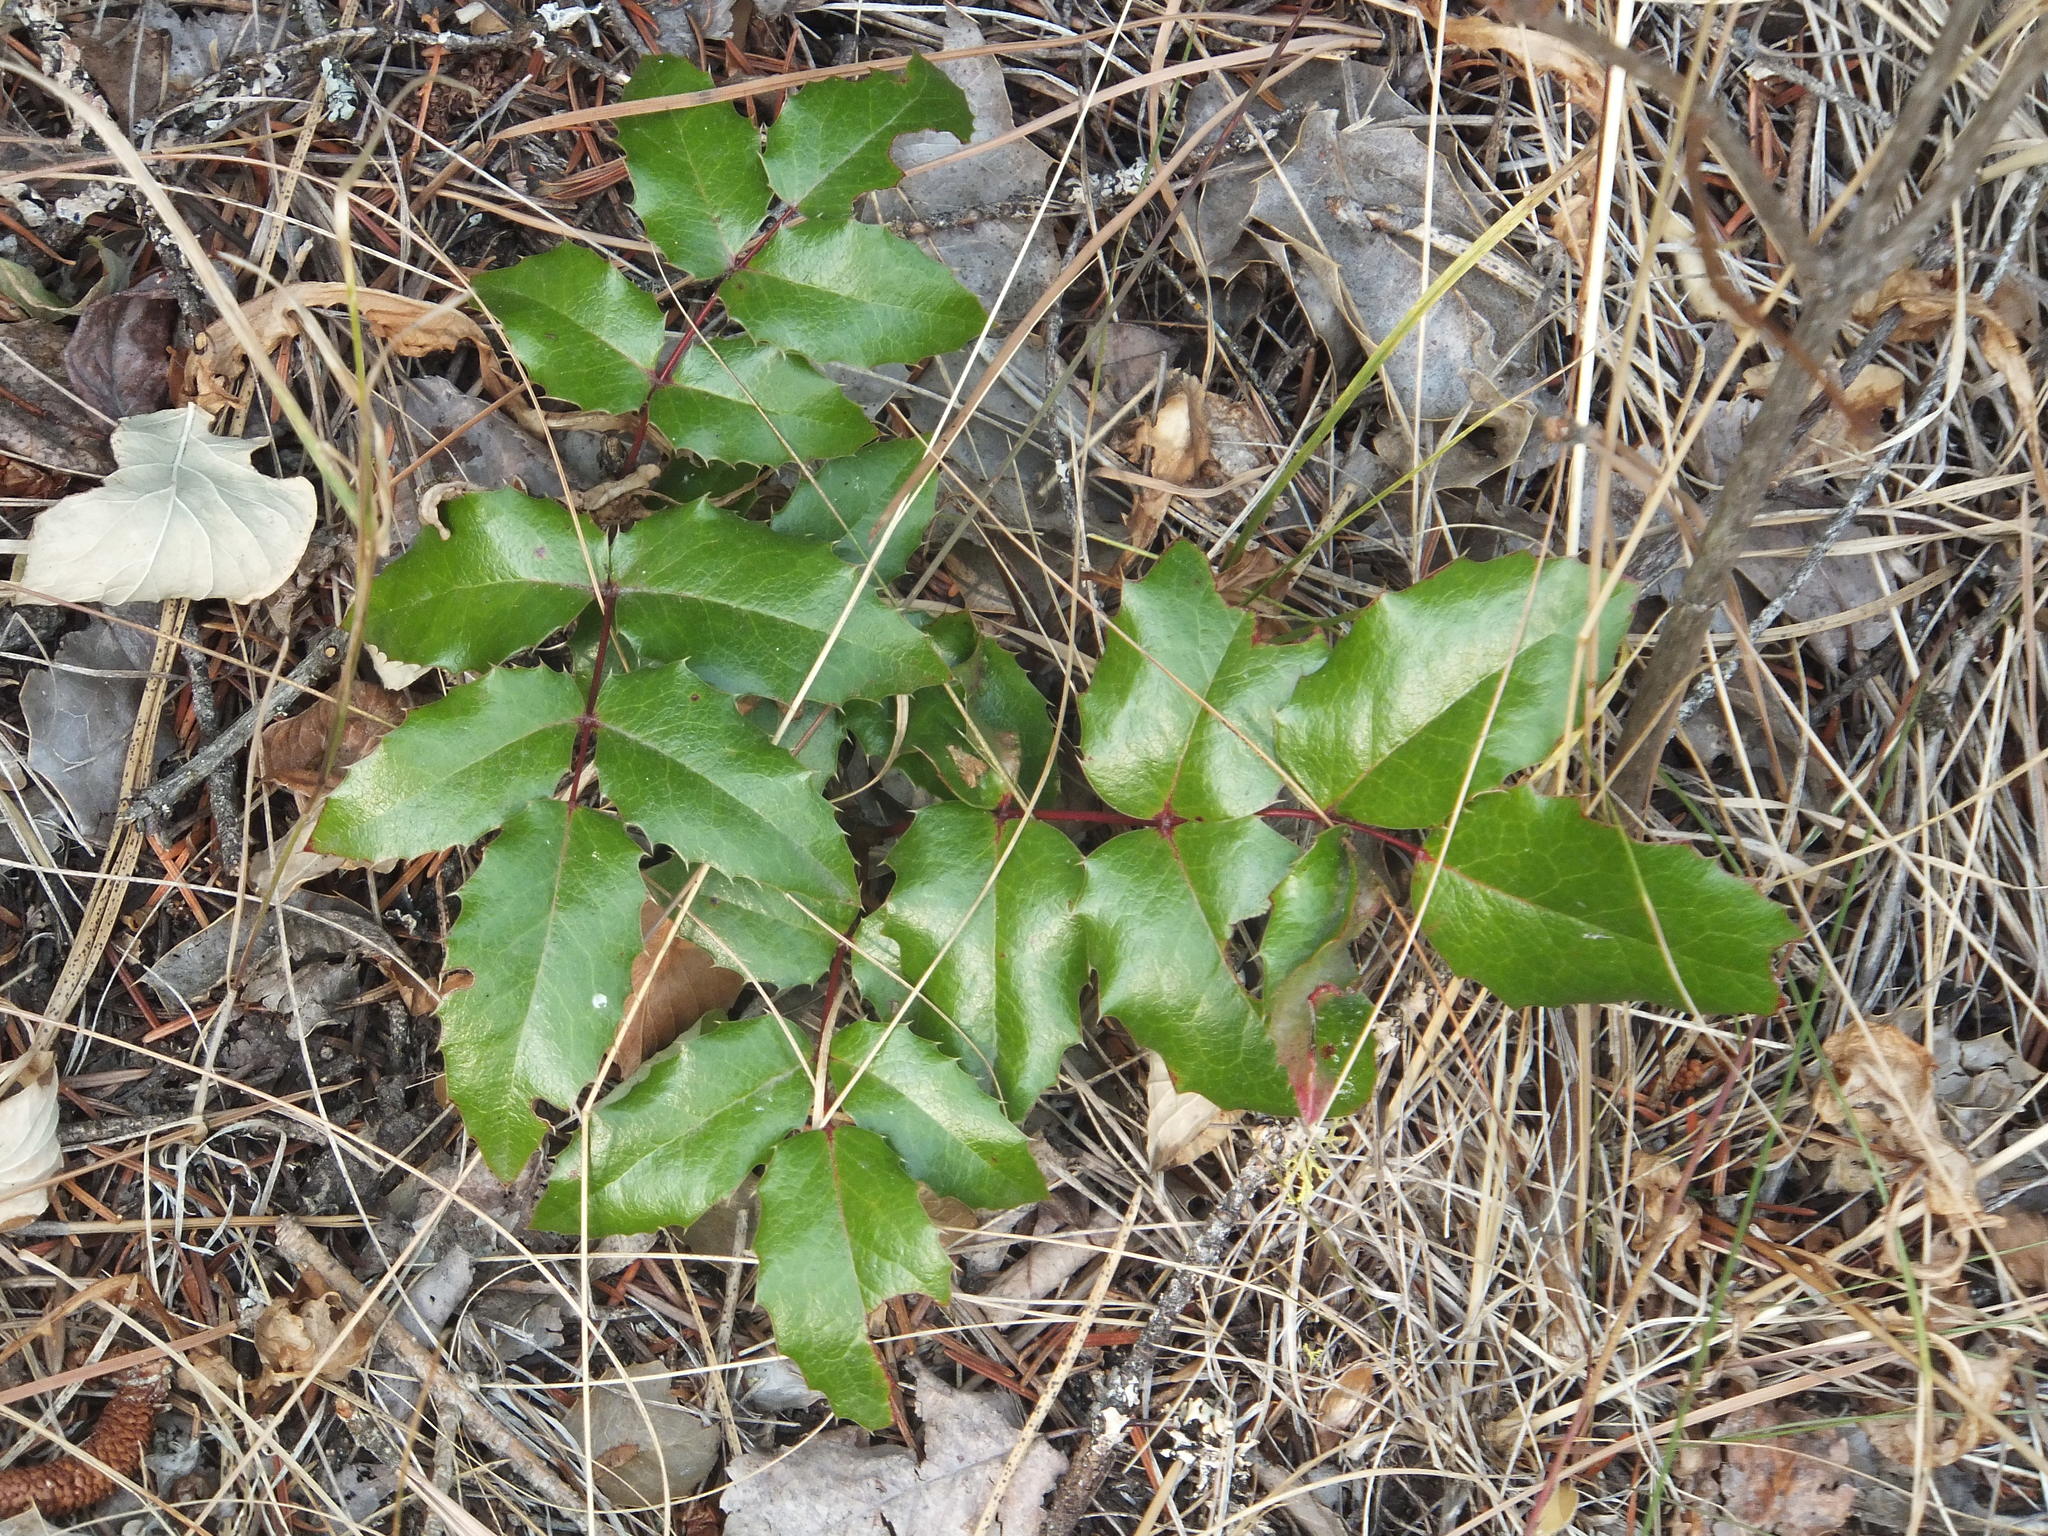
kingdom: Plantae
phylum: Tracheophyta
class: Magnoliopsida
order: Ranunculales
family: Berberidaceae
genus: Mahonia
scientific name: Mahonia aquifolium
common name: Oregon-grape
